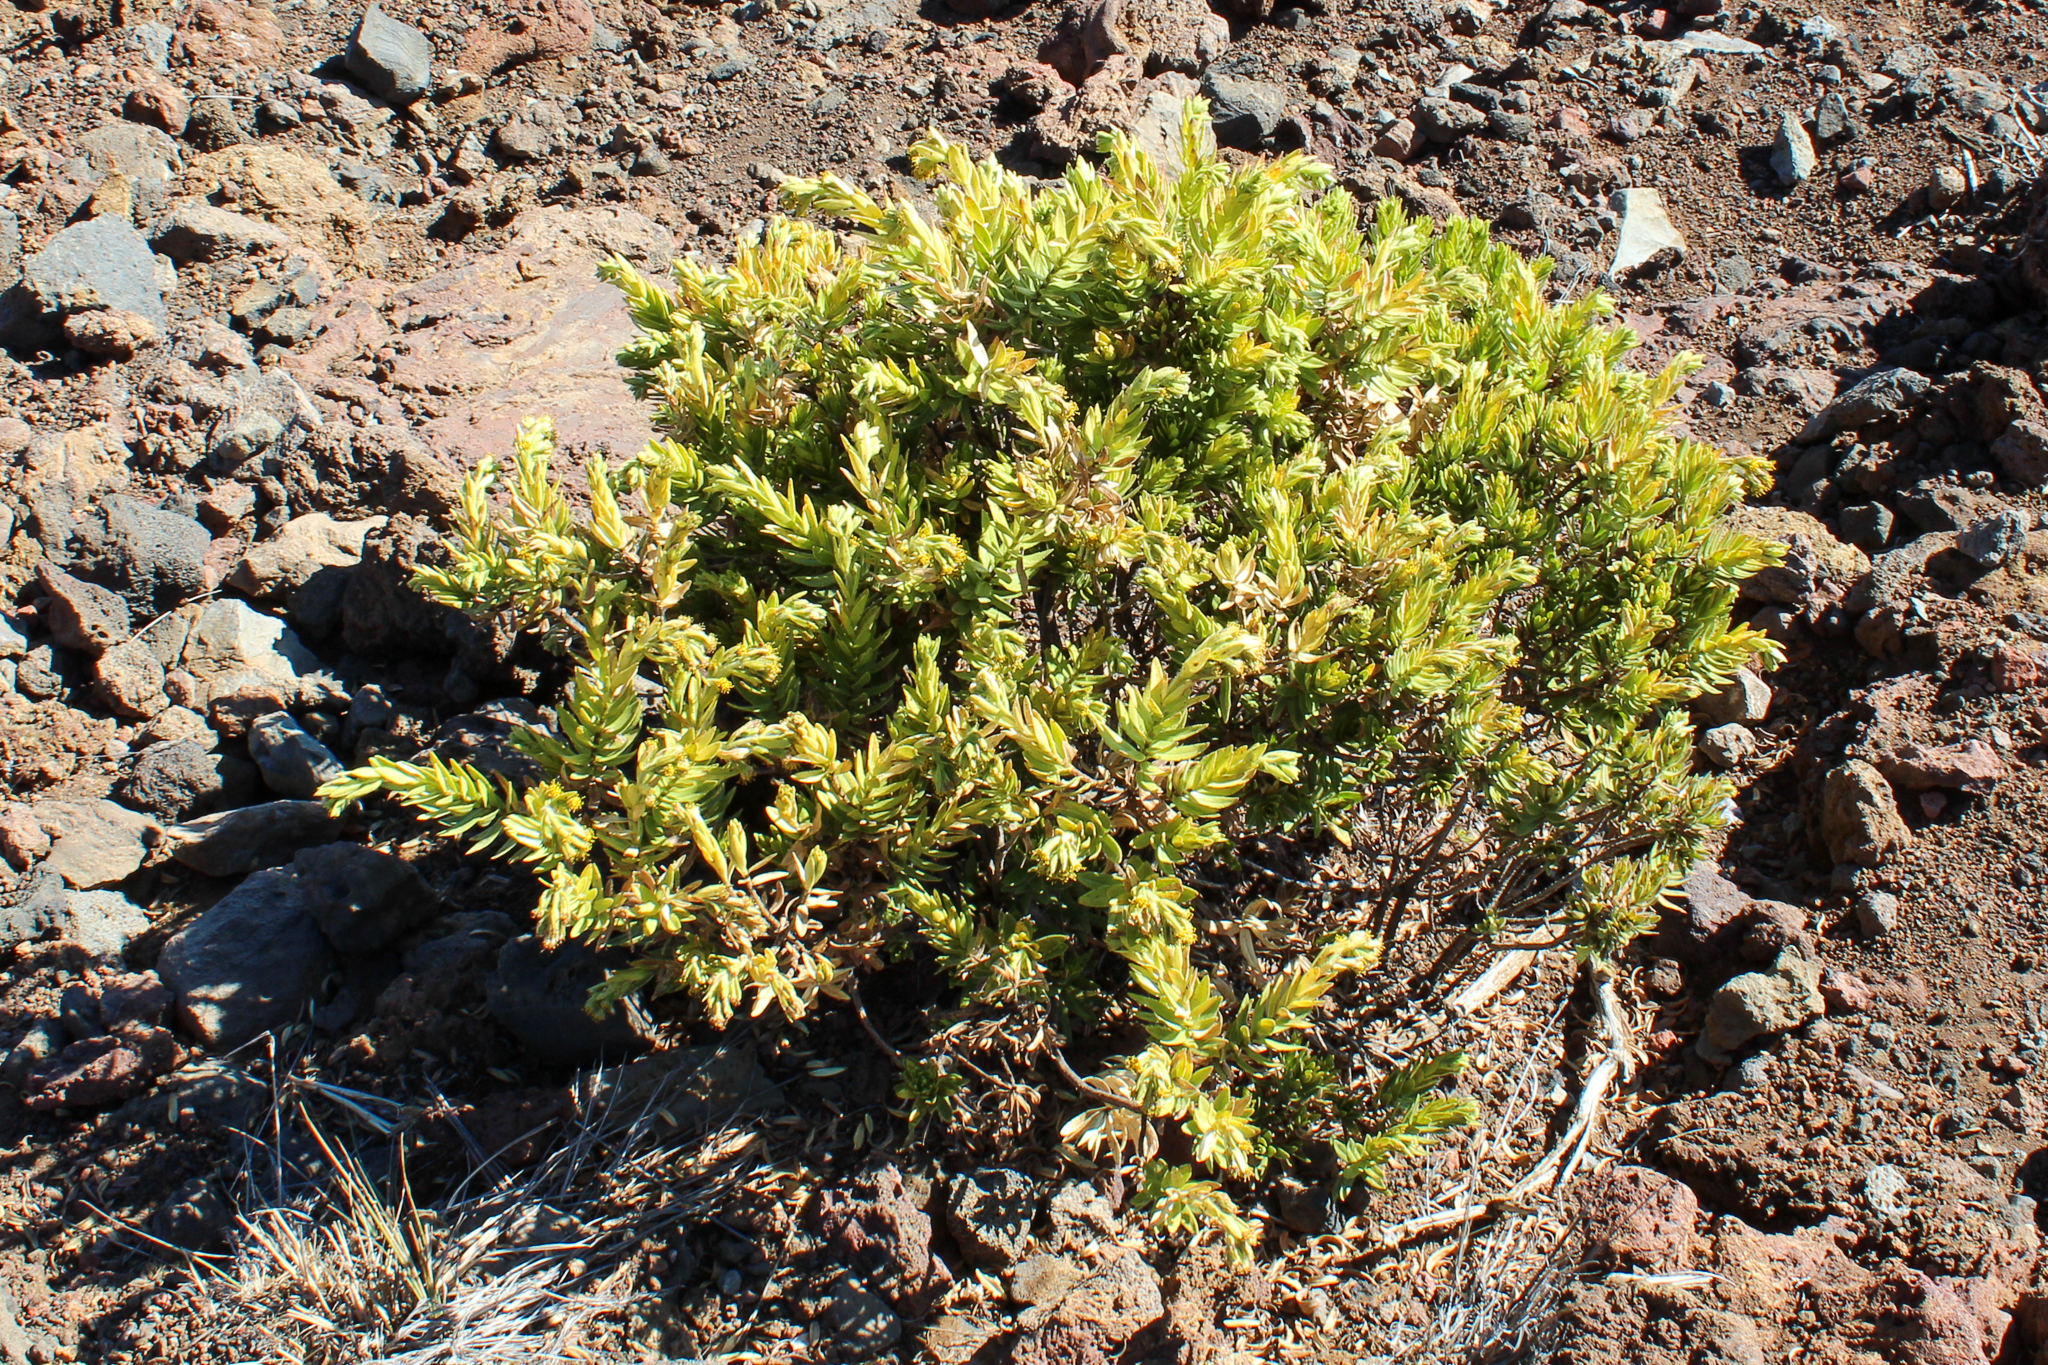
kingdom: Plantae
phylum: Tracheophyta
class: Magnoliopsida
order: Asterales
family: Asteraceae
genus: Dubautia
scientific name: Dubautia menziesii
